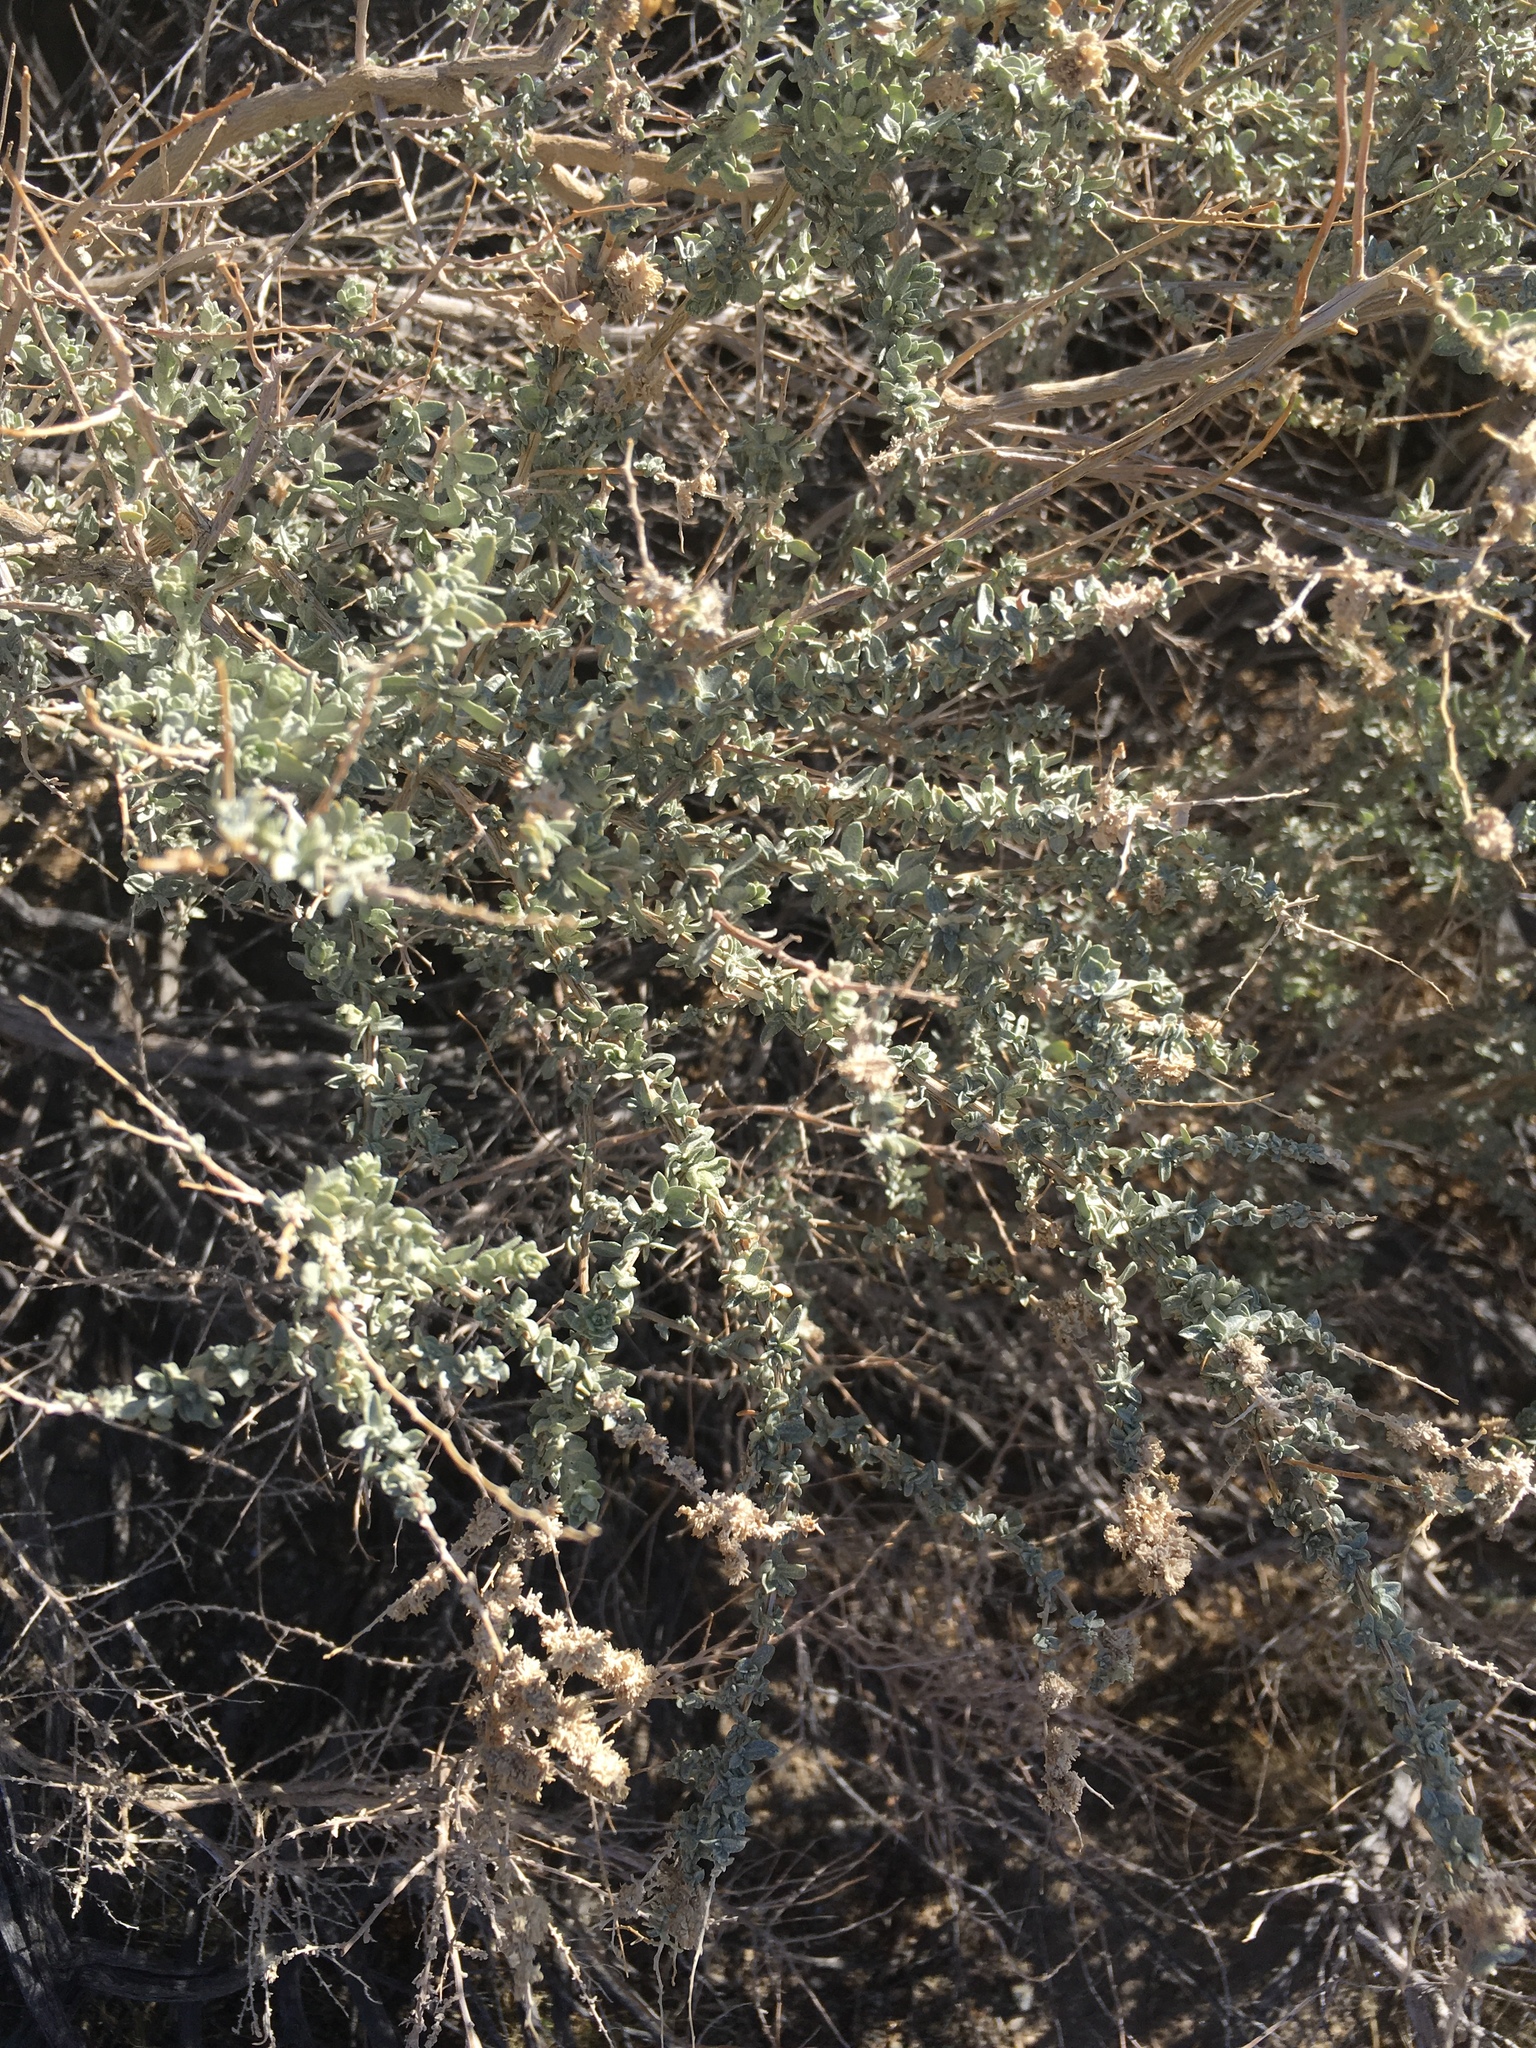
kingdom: Plantae
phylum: Tracheophyta
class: Magnoliopsida
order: Caryophyllales
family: Amaranthaceae
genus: Atriplex
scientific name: Atriplex polycarpa
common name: Desert saltbush
